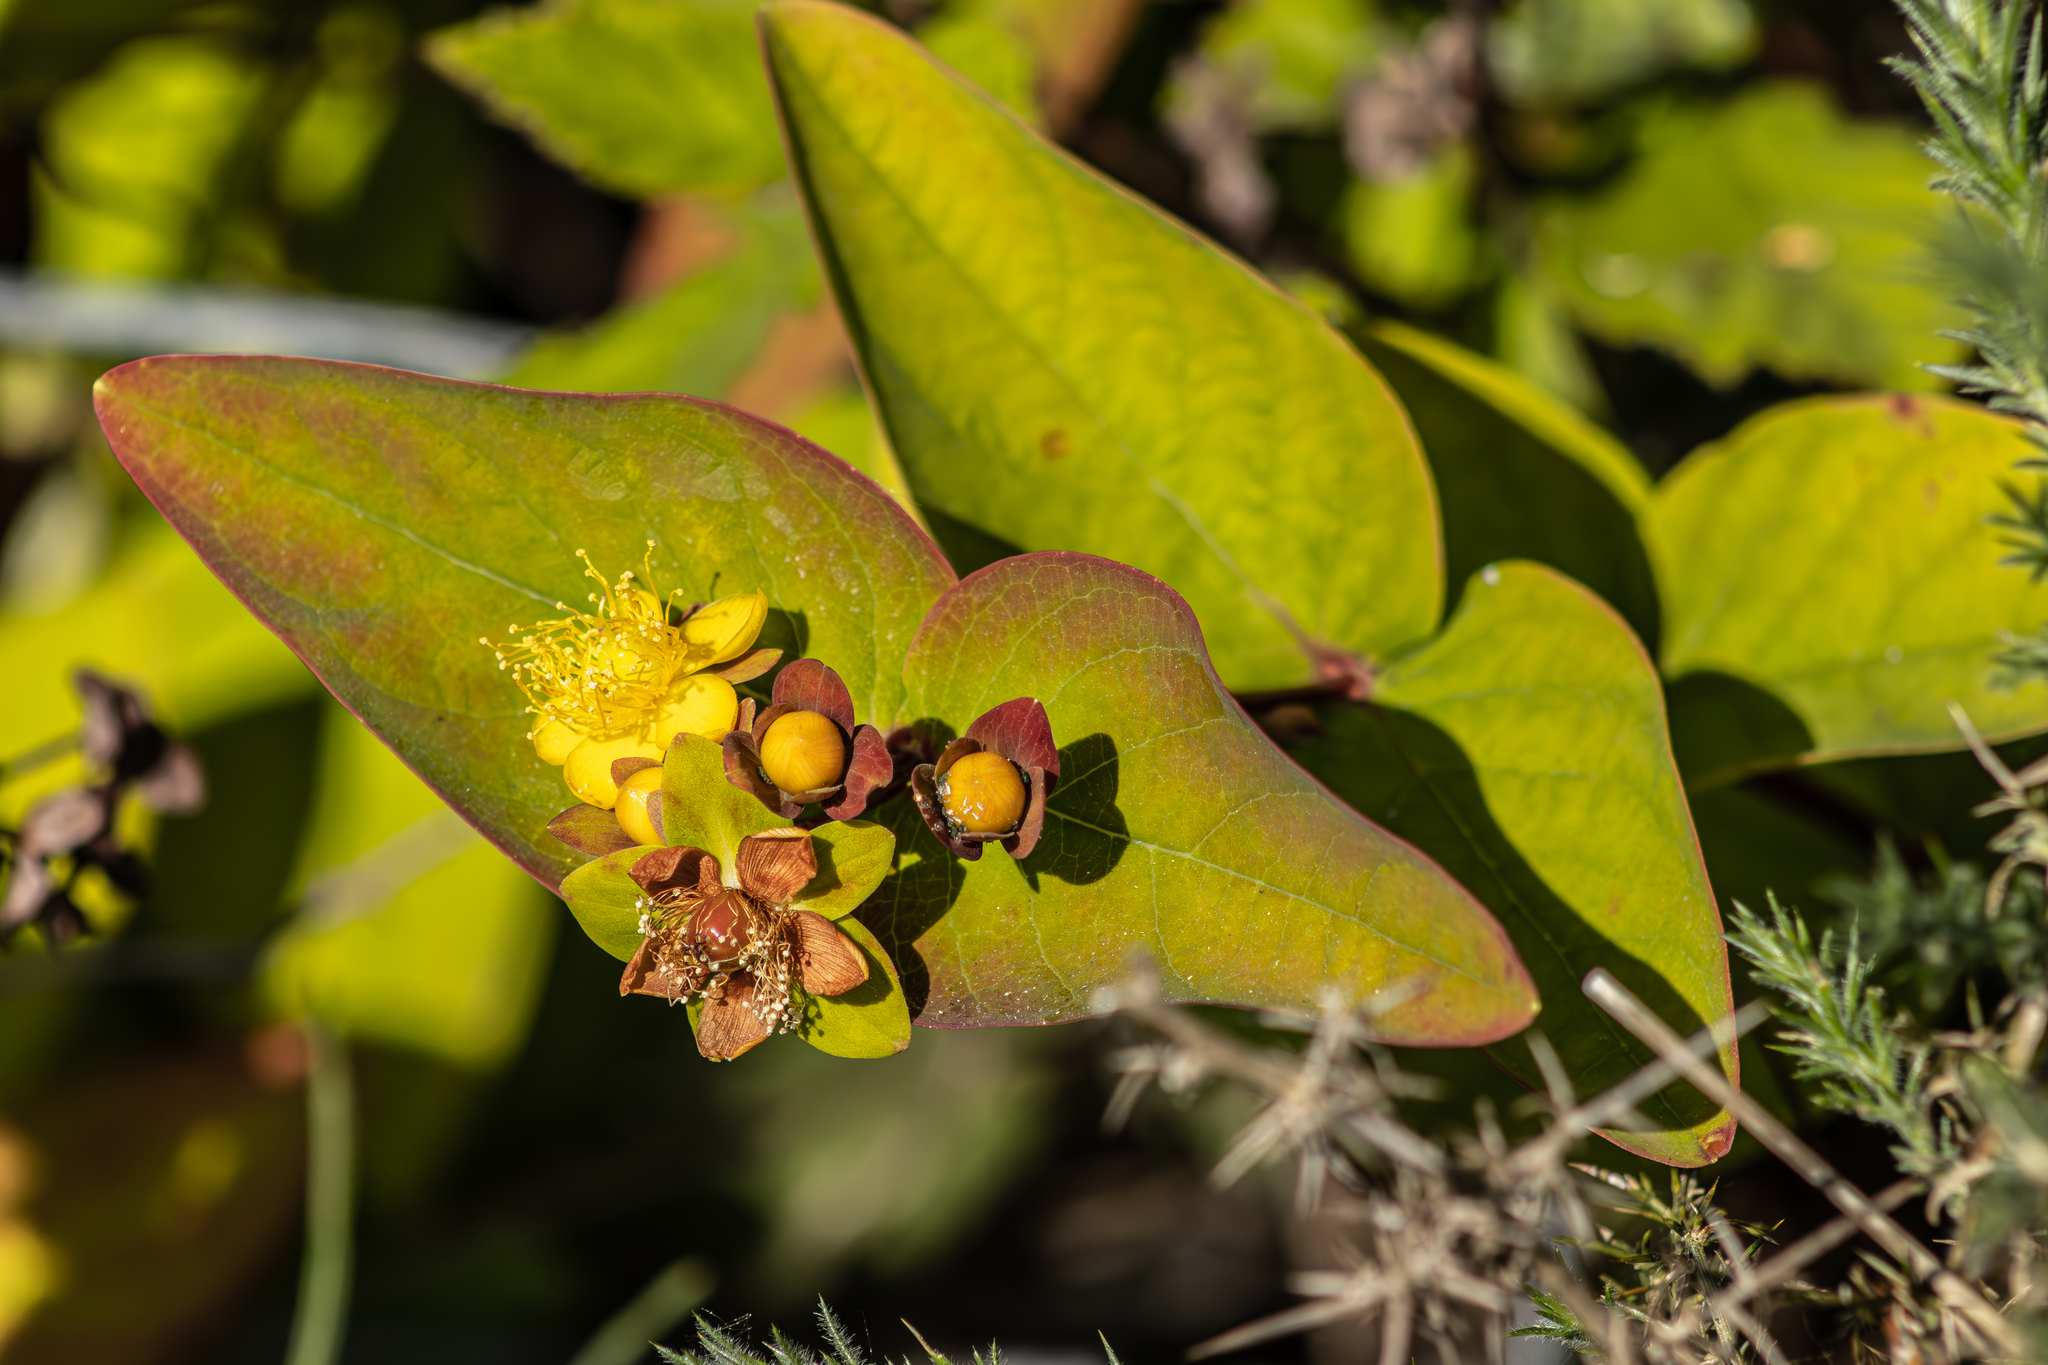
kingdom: Plantae
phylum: Tracheophyta
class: Magnoliopsida
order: Malpighiales
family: Hypericaceae
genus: Hypericum
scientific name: Hypericum androsaemum
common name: Sweet-amber
